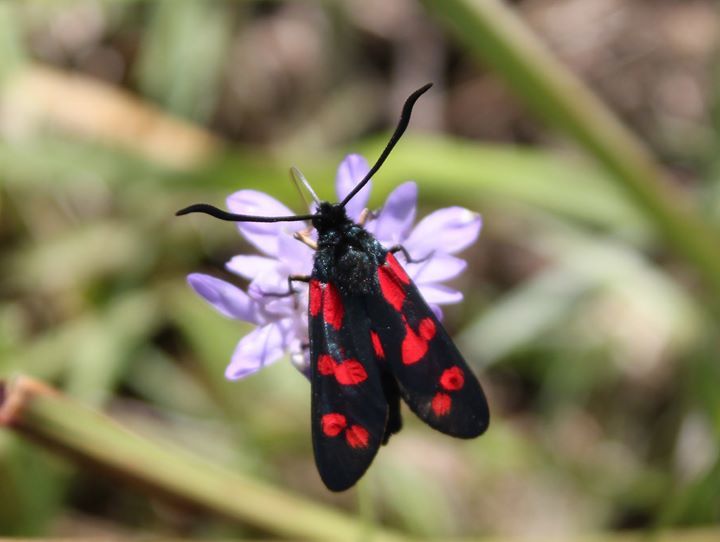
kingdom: Animalia
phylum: Arthropoda
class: Insecta
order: Lepidoptera
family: Zygaenidae
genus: Zygaena
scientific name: Zygaena filipendulae
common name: Six-spot burnet
